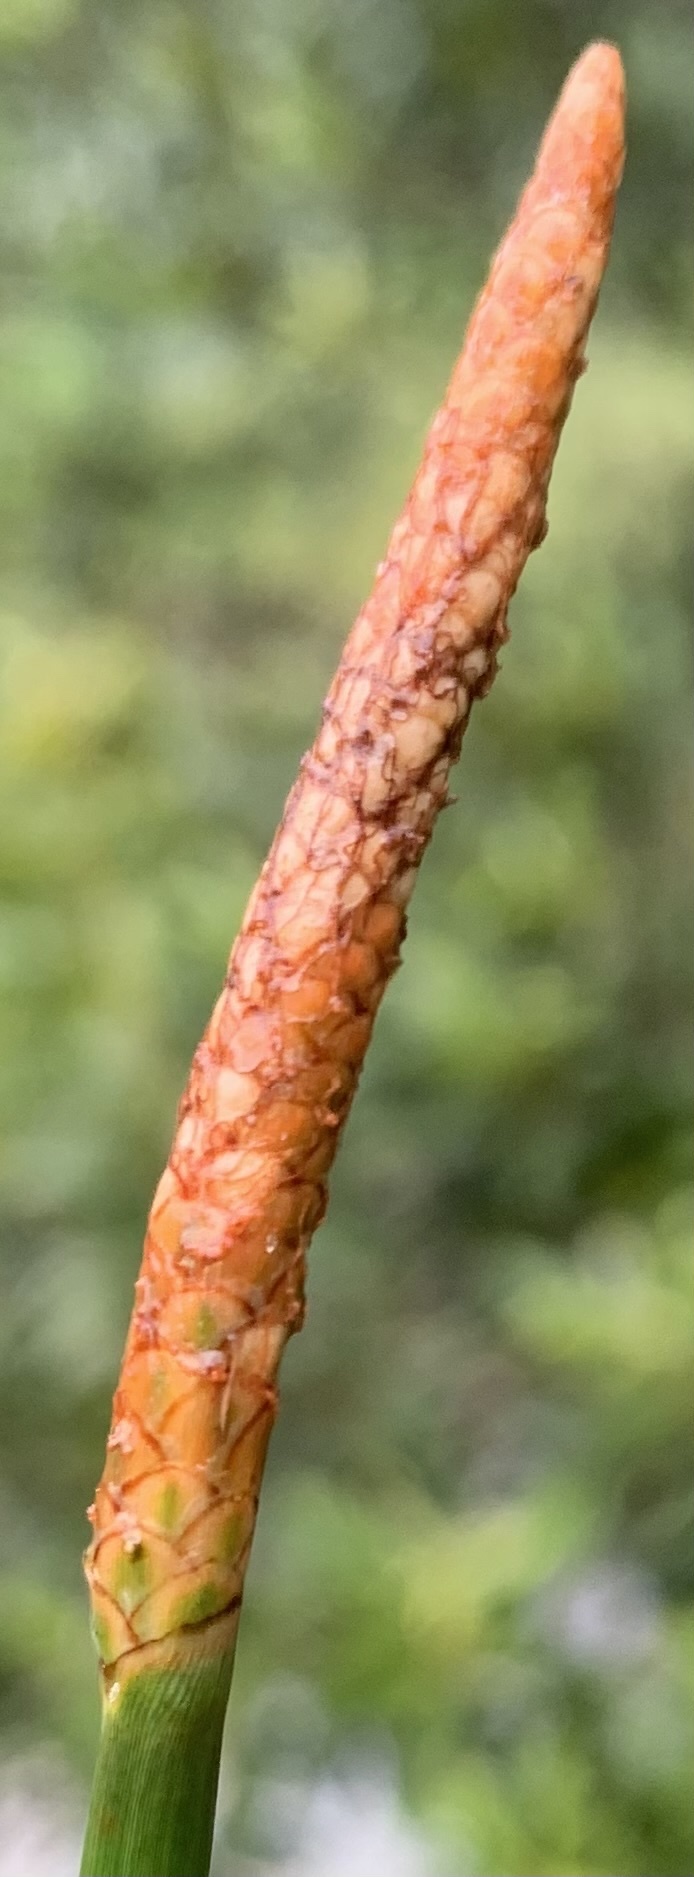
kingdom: Plantae
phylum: Tracheophyta
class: Liliopsida
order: Poales
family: Cyperaceae
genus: Eleocharis
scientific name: Eleocharis cellulosa
